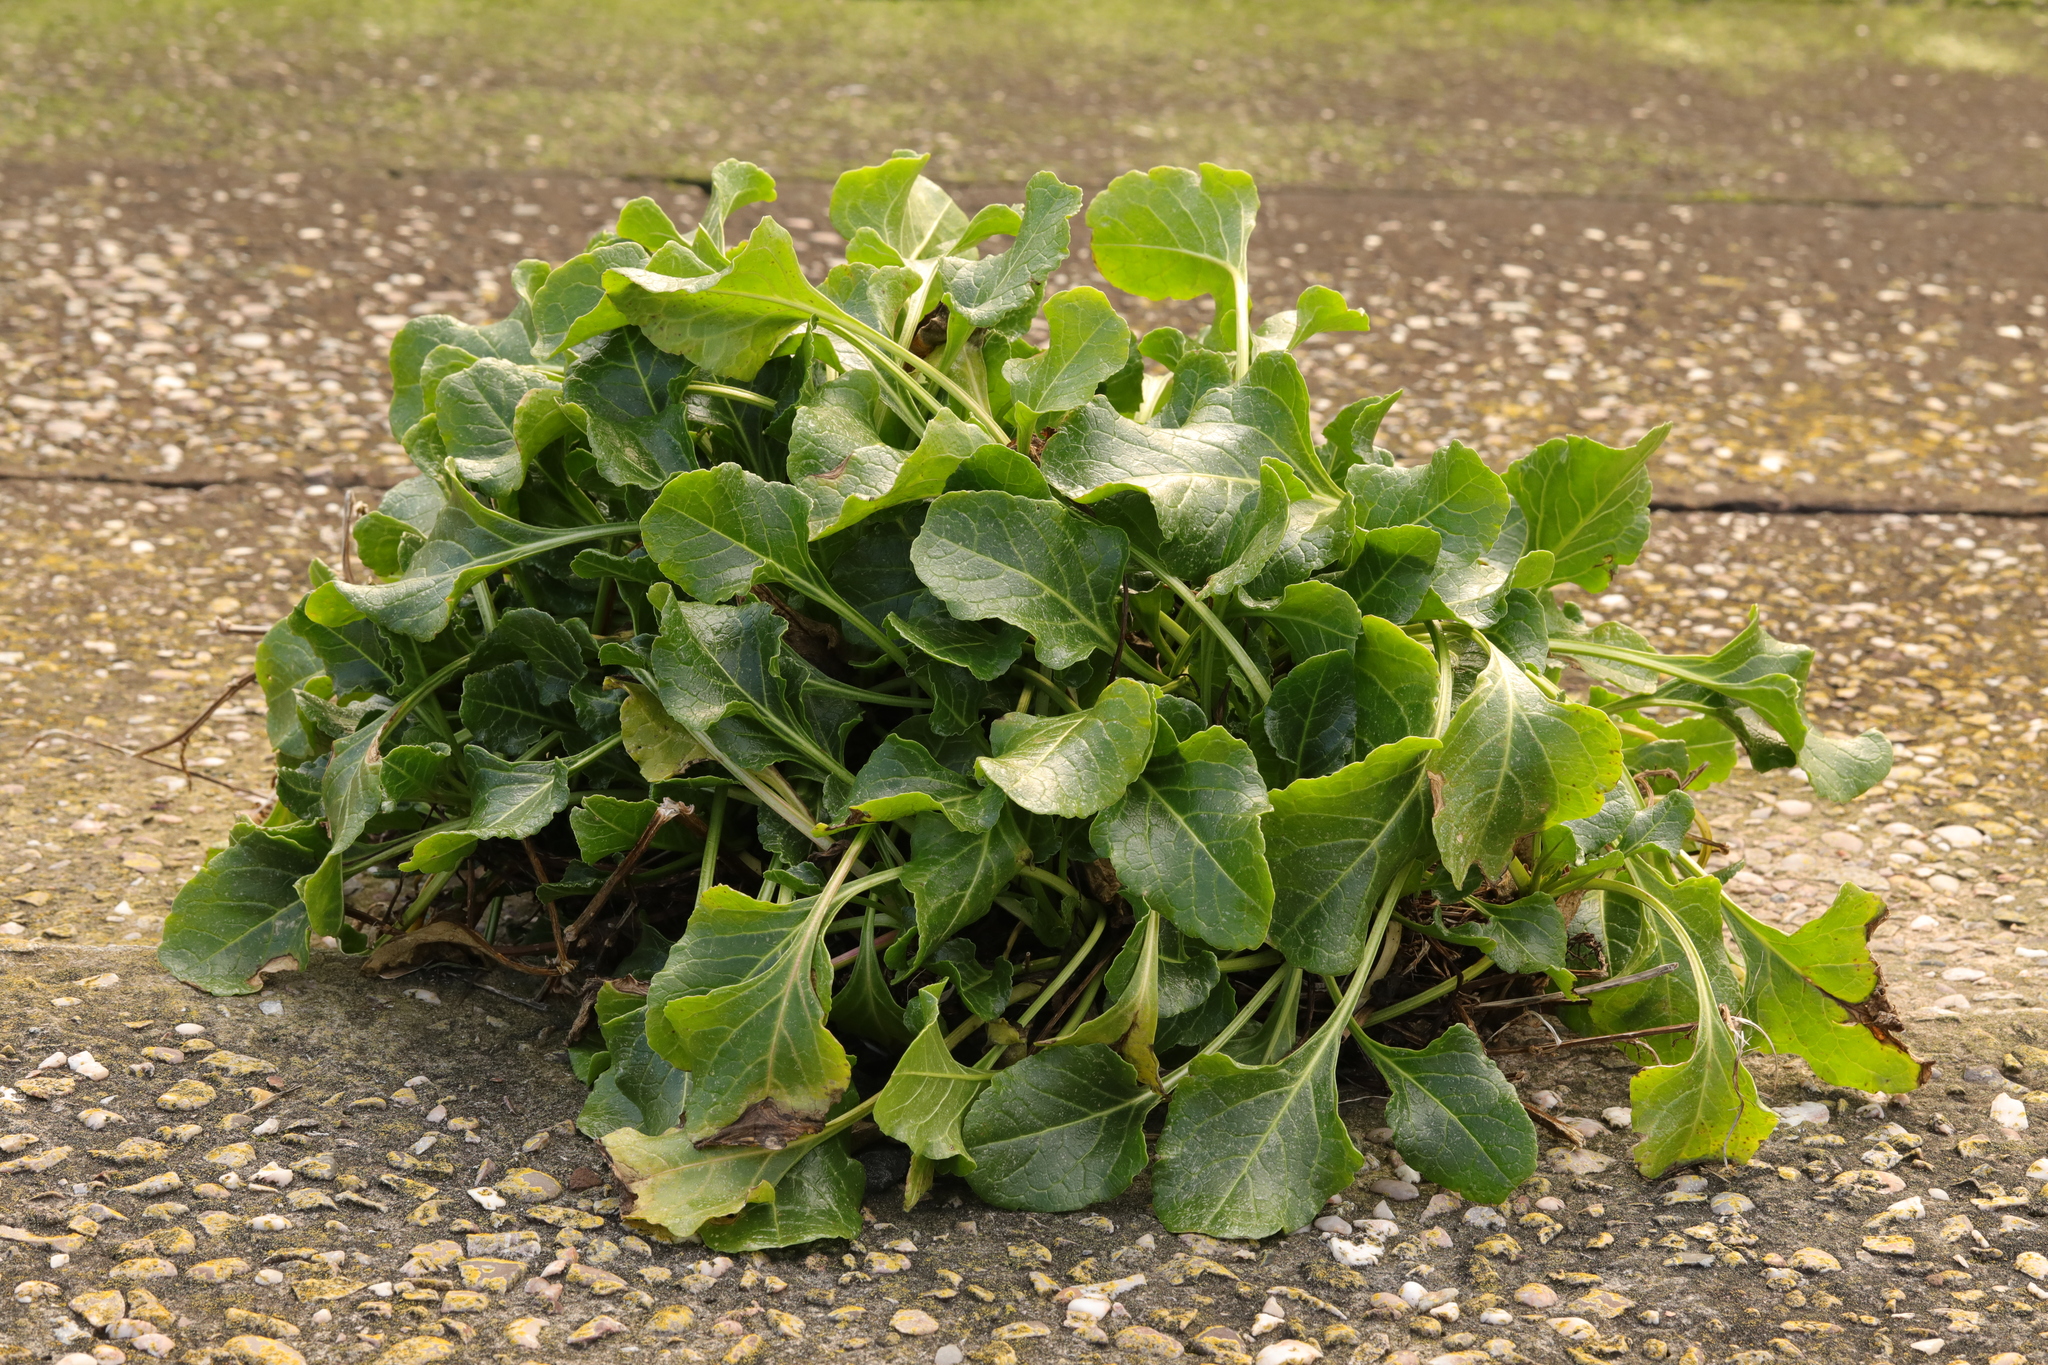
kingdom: Plantae
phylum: Tracheophyta
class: Magnoliopsida
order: Caryophyllales
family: Amaranthaceae
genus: Beta
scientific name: Beta vulgaris
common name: Beet
